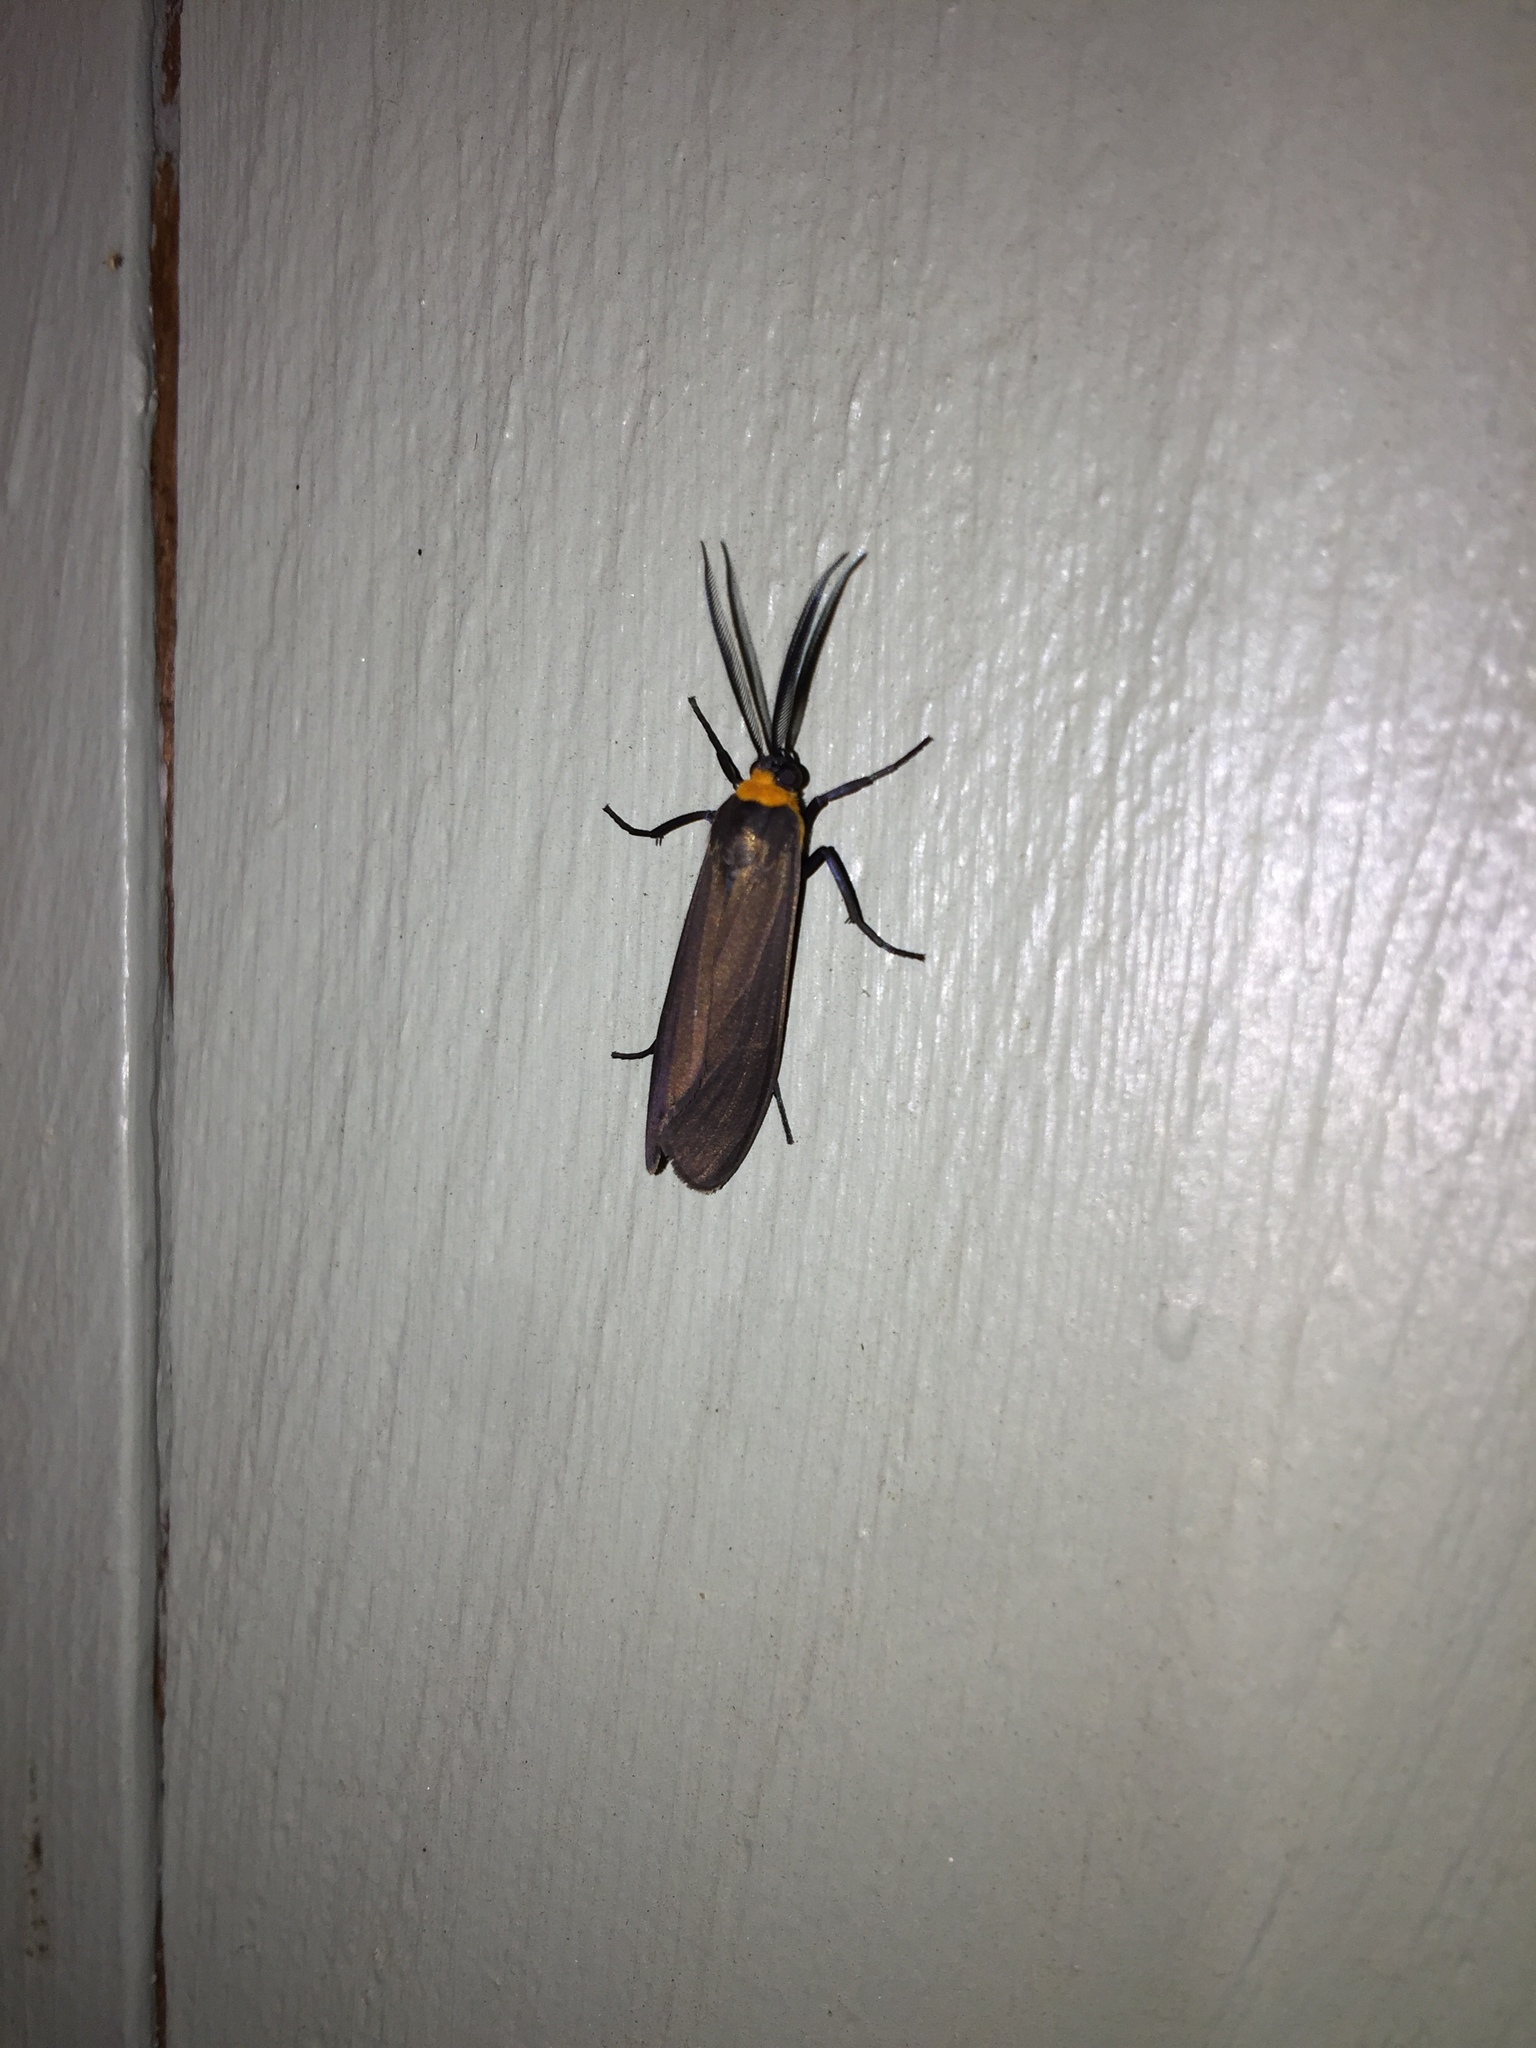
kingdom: Animalia
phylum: Arthropoda
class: Insecta
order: Lepidoptera
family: Erebidae
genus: Cisseps
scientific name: Cisseps fulvicollis
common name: Yellow-collared scape moth
